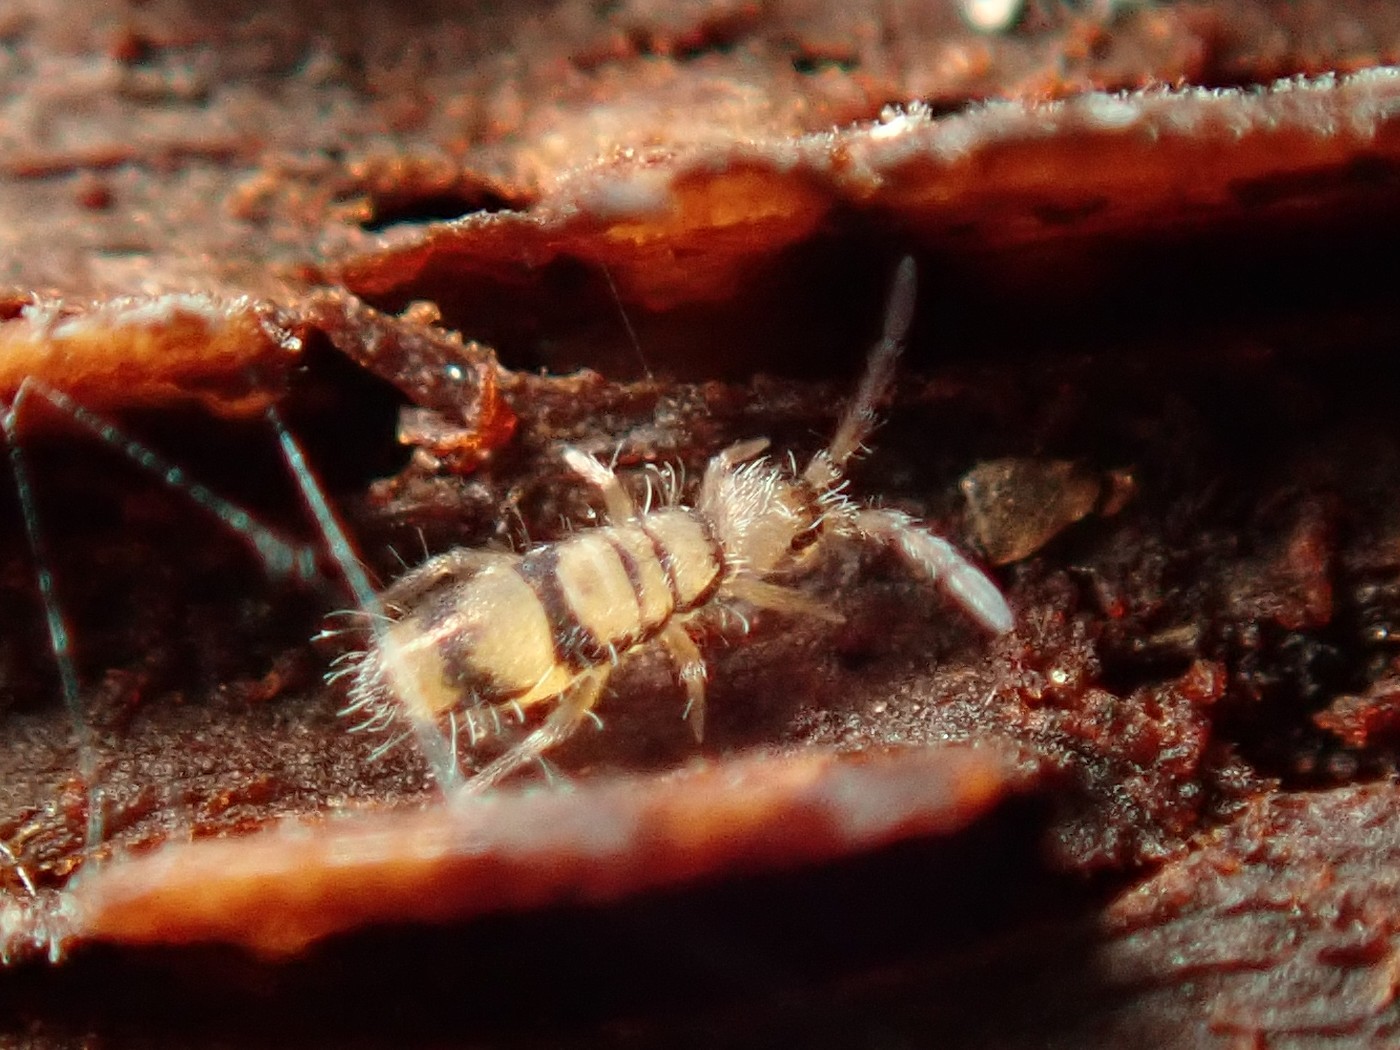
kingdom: Animalia
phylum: Arthropoda
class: Collembola
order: Entomobryomorpha
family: Entomobryidae
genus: Entomobrya
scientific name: Entomobrya corticalis
